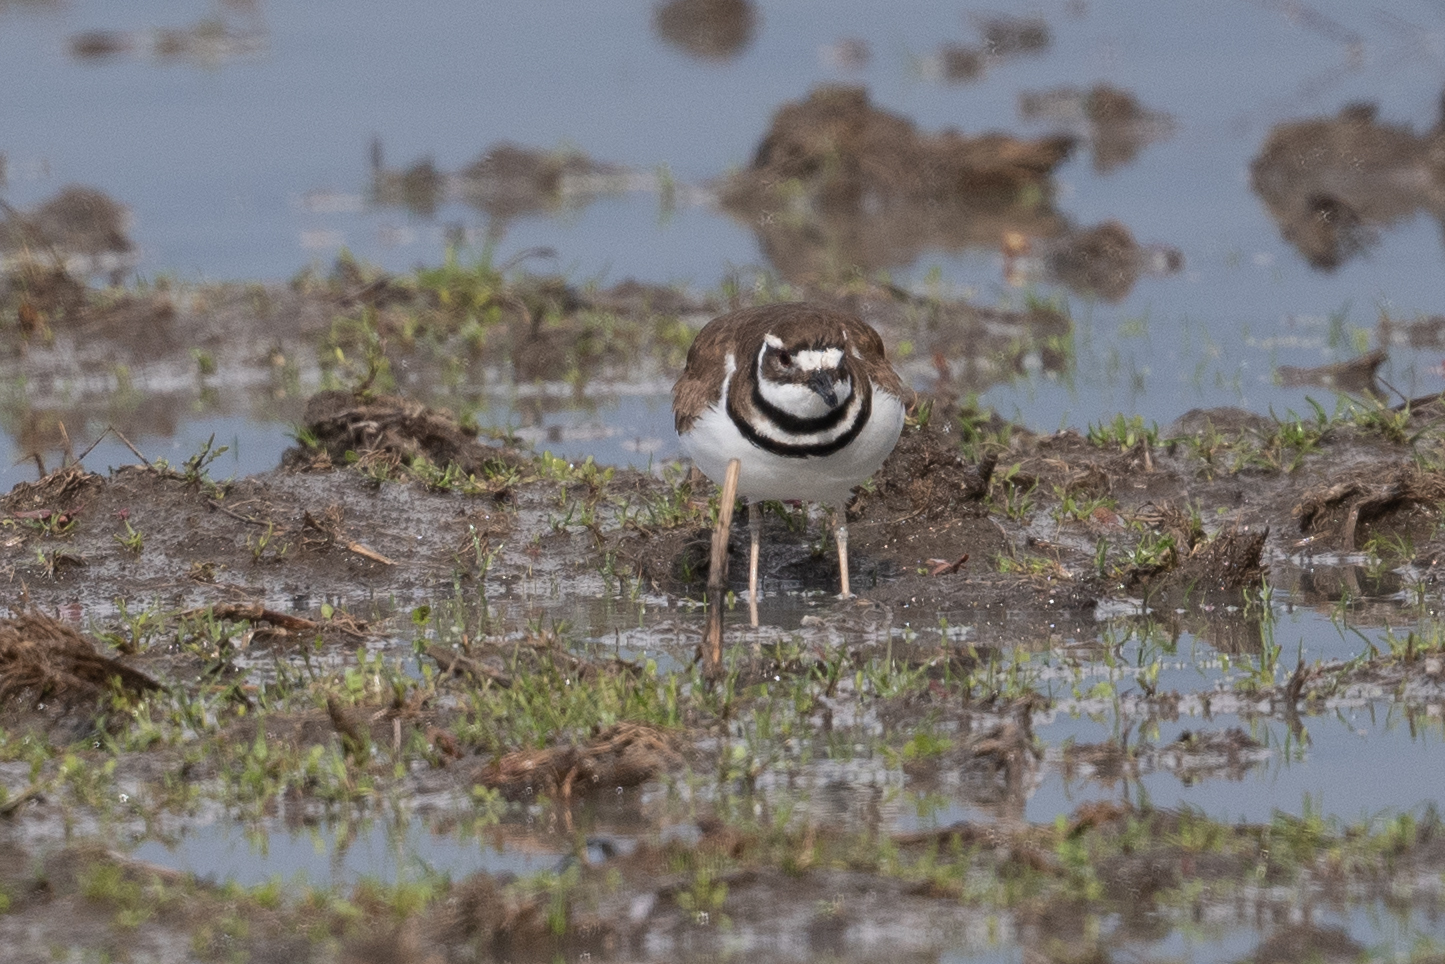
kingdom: Animalia
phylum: Chordata
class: Aves
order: Charadriiformes
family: Charadriidae
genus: Charadrius
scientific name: Charadrius vociferus
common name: Killdeer
